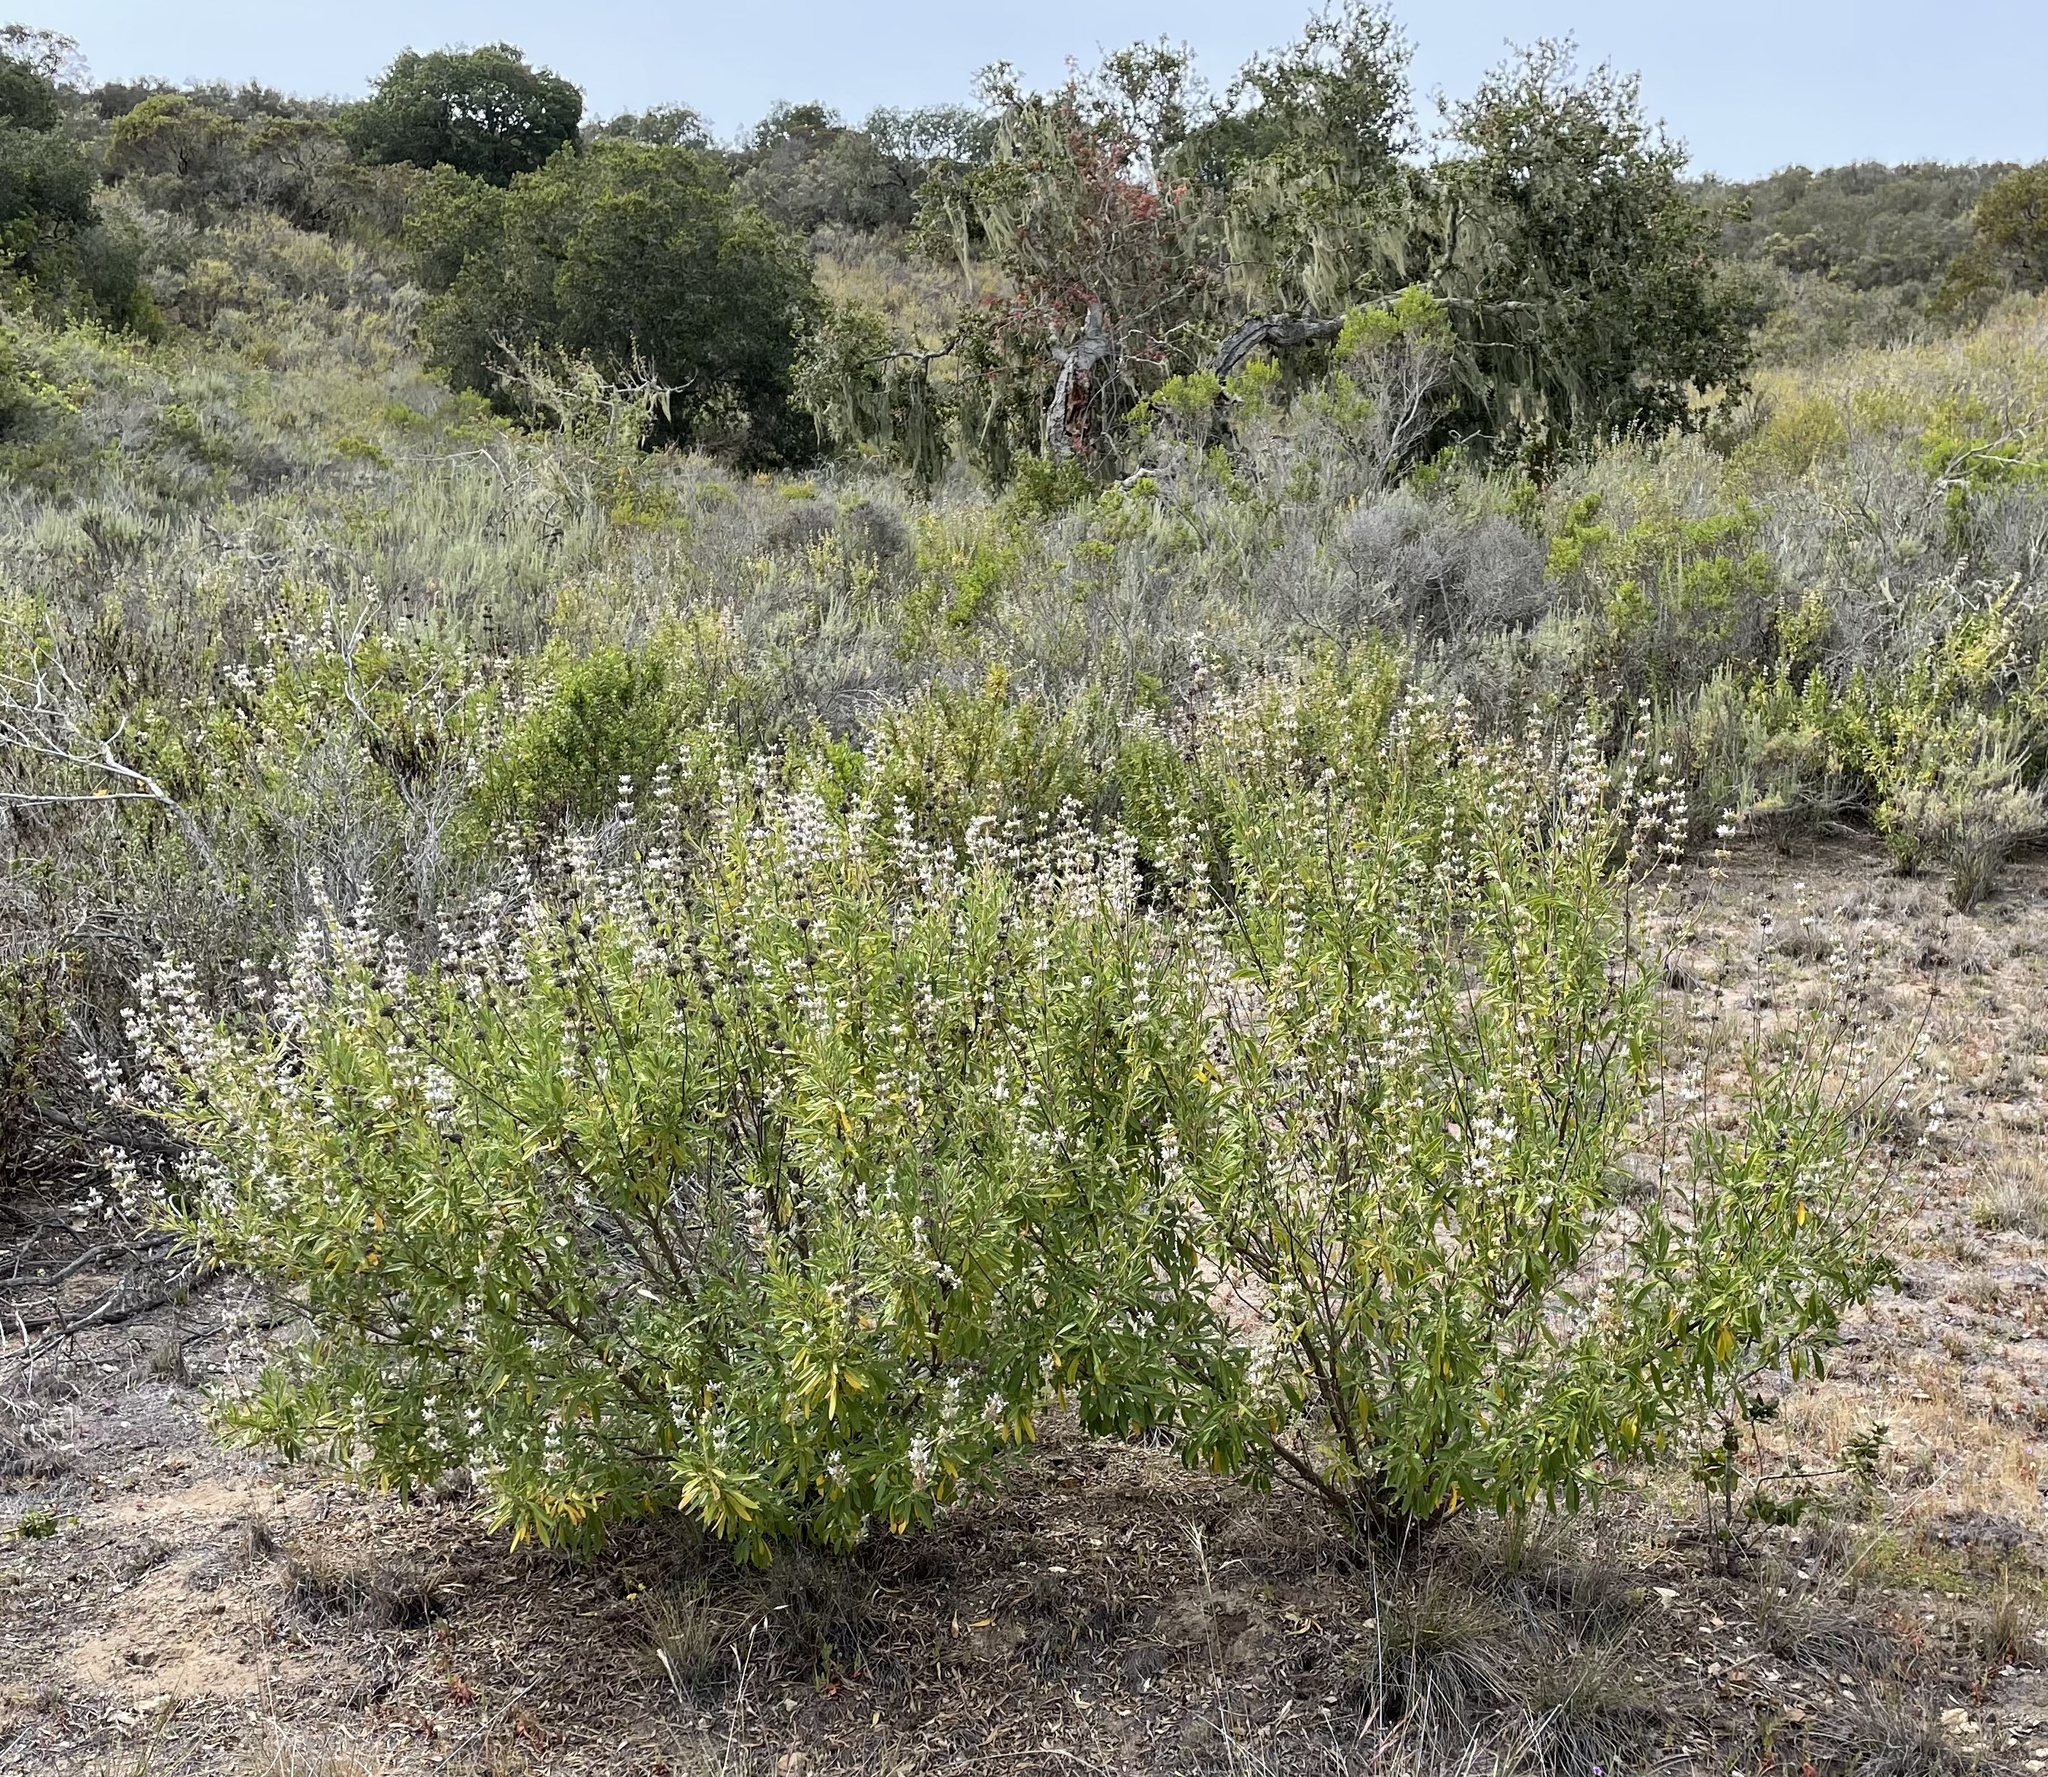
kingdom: Plantae
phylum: Tracheophyta
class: Magnoliopsida
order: Lamiales
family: Lamiaceae
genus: Salvia
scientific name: Salvia mellifera
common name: Black sage
